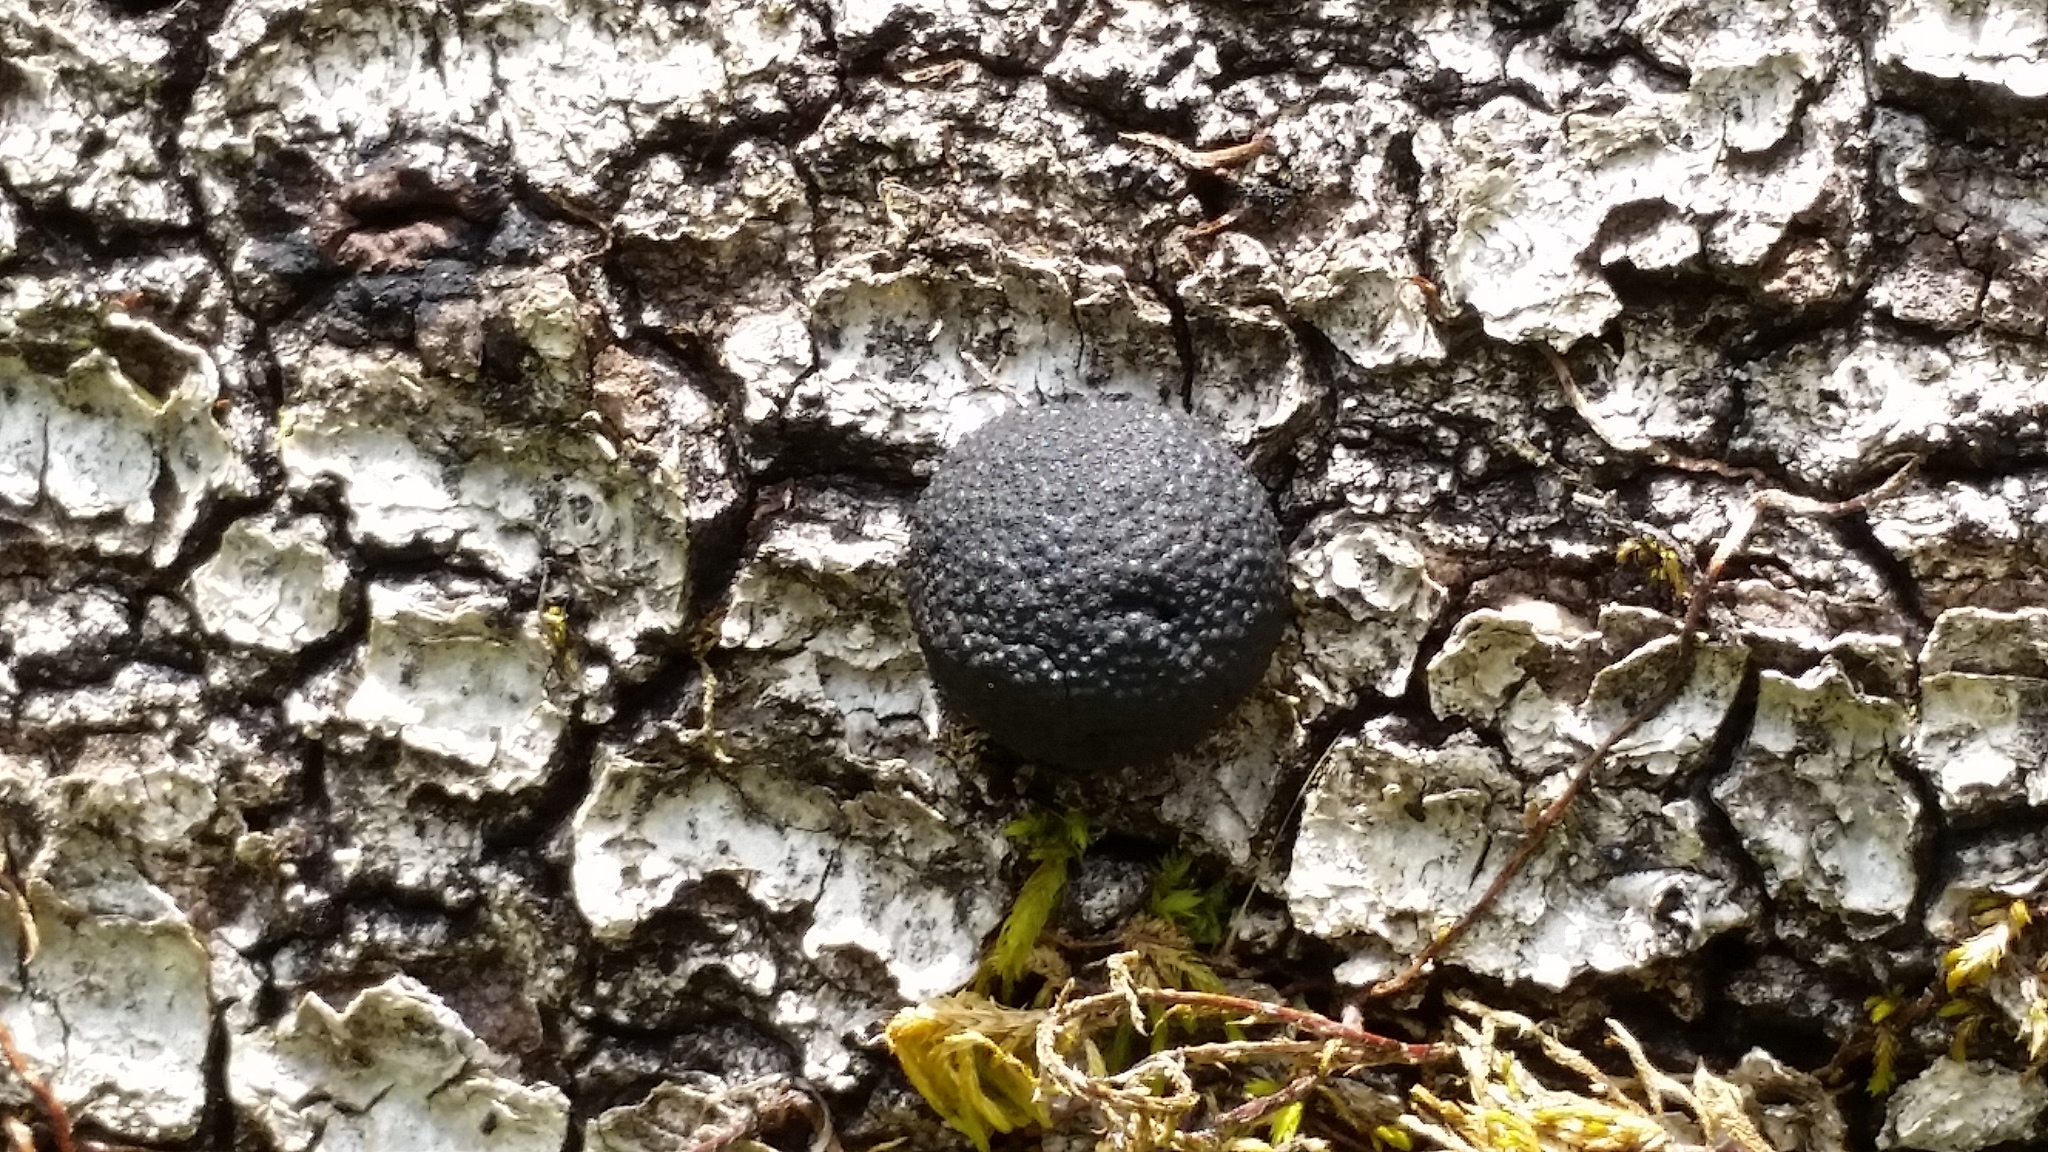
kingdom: Fungi
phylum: Ascomycota
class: Sordariomycetes
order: Xylariales
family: Hypoxylaceae
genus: Annulohypoxylon
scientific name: Annulohypoxylon thouarsianum
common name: Cramp balls
